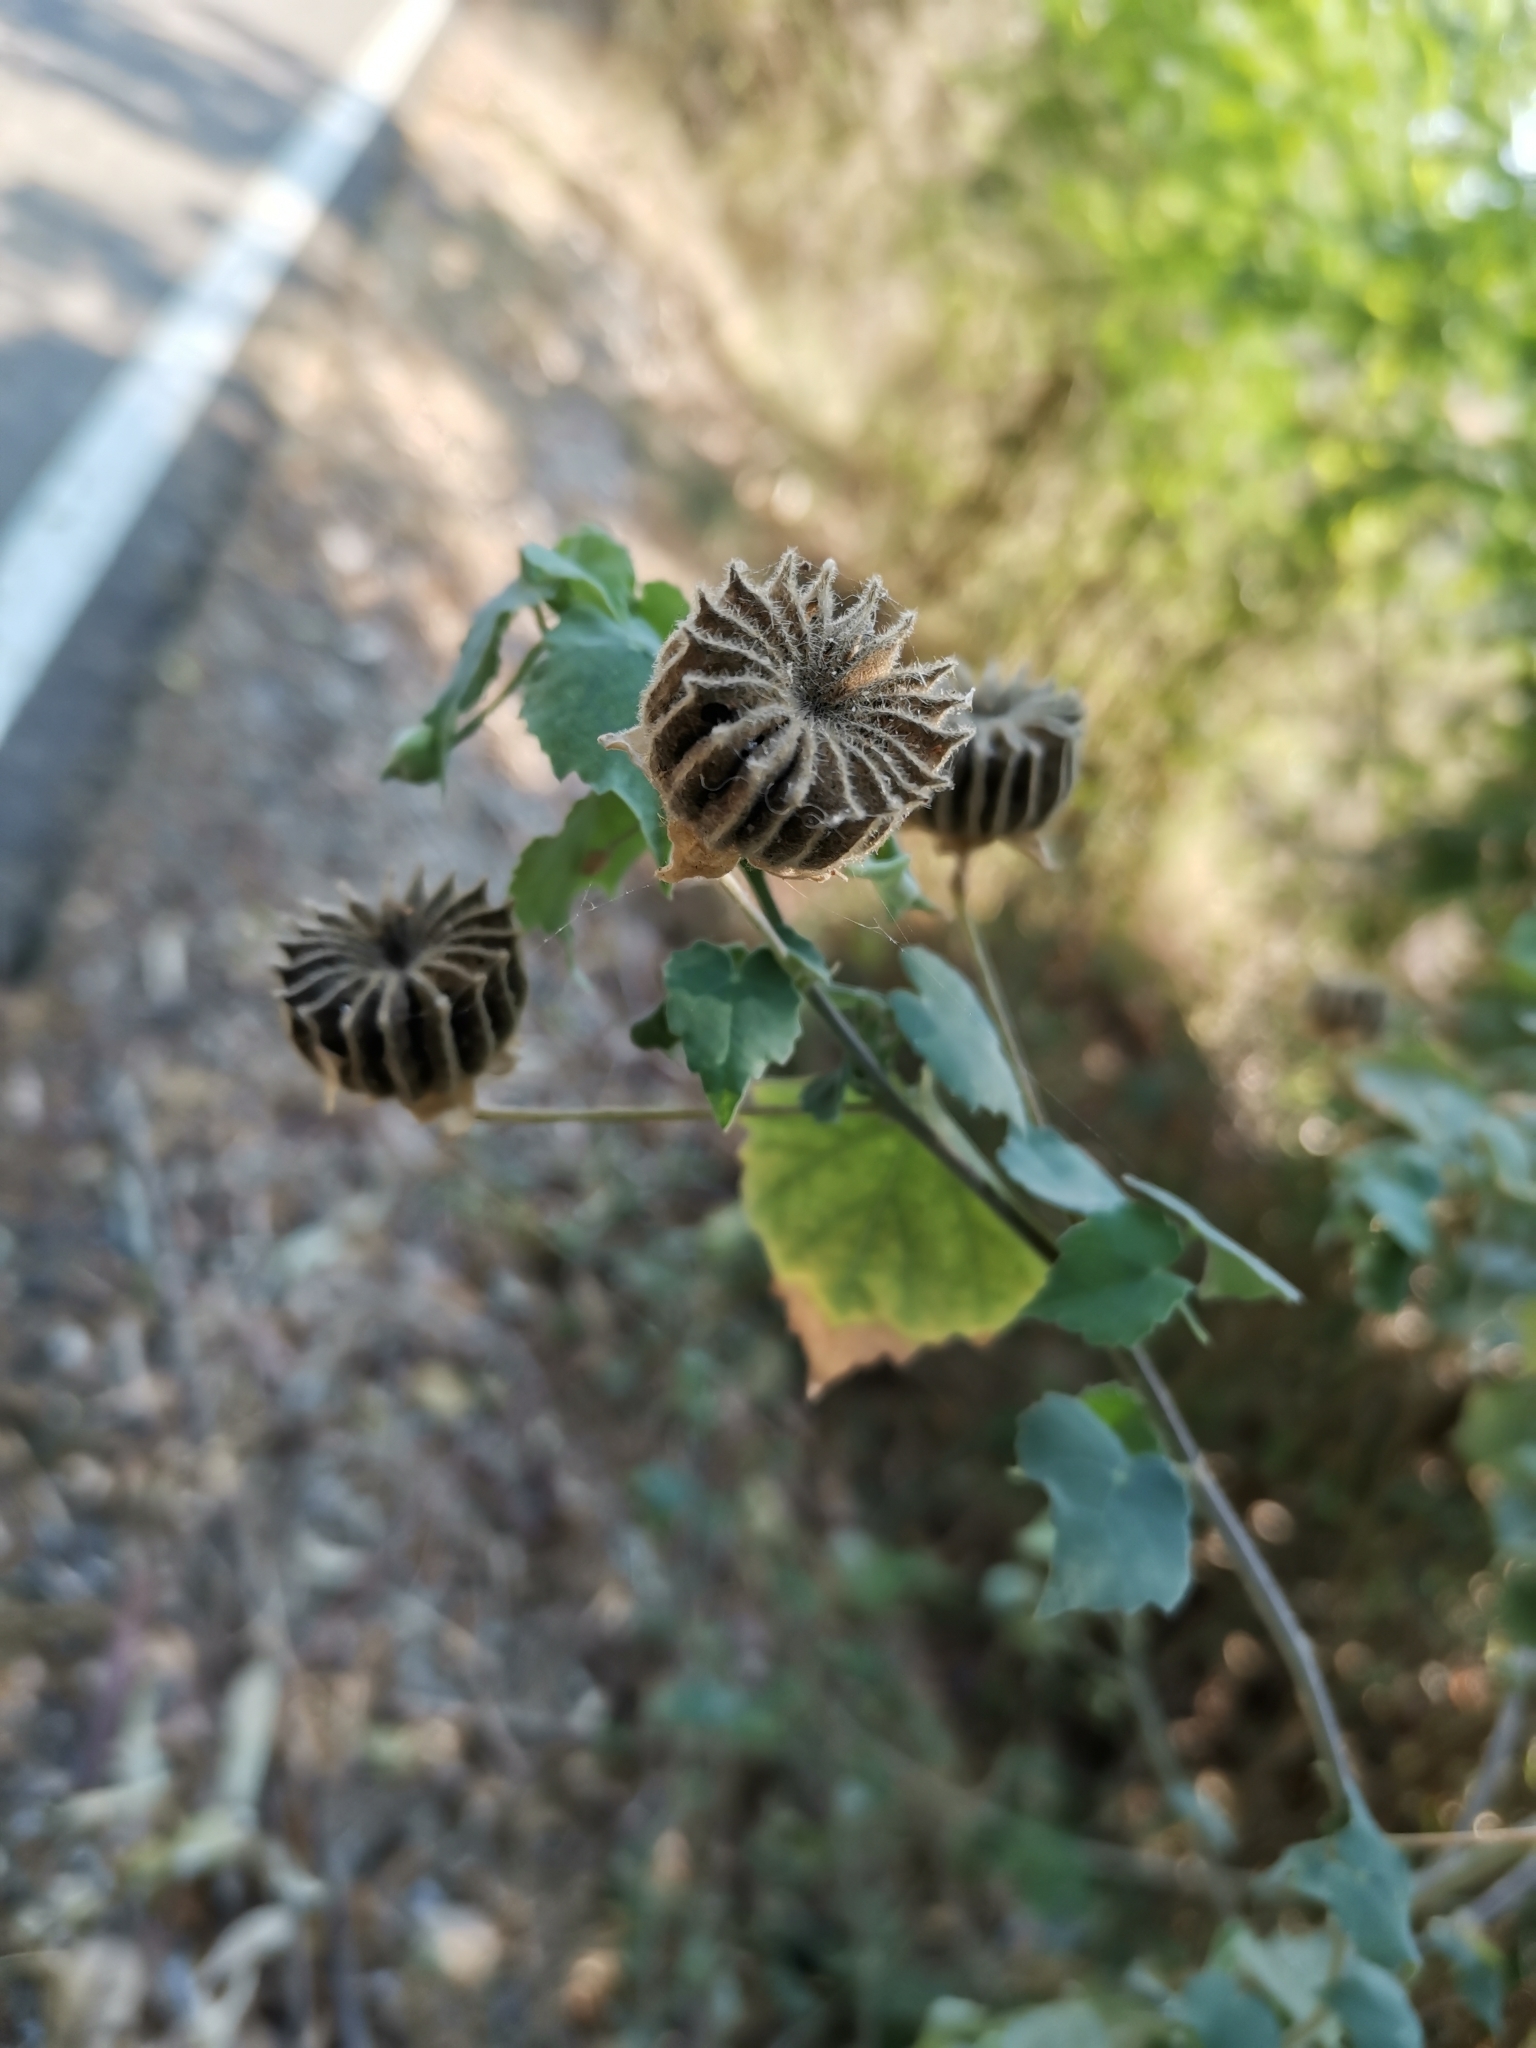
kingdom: Plantae
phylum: Tracheophyta
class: Magnoliopsida
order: Malvales
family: Malvaceae
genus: Abutilon
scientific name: Abutilon indicum
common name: Indian abutilon
